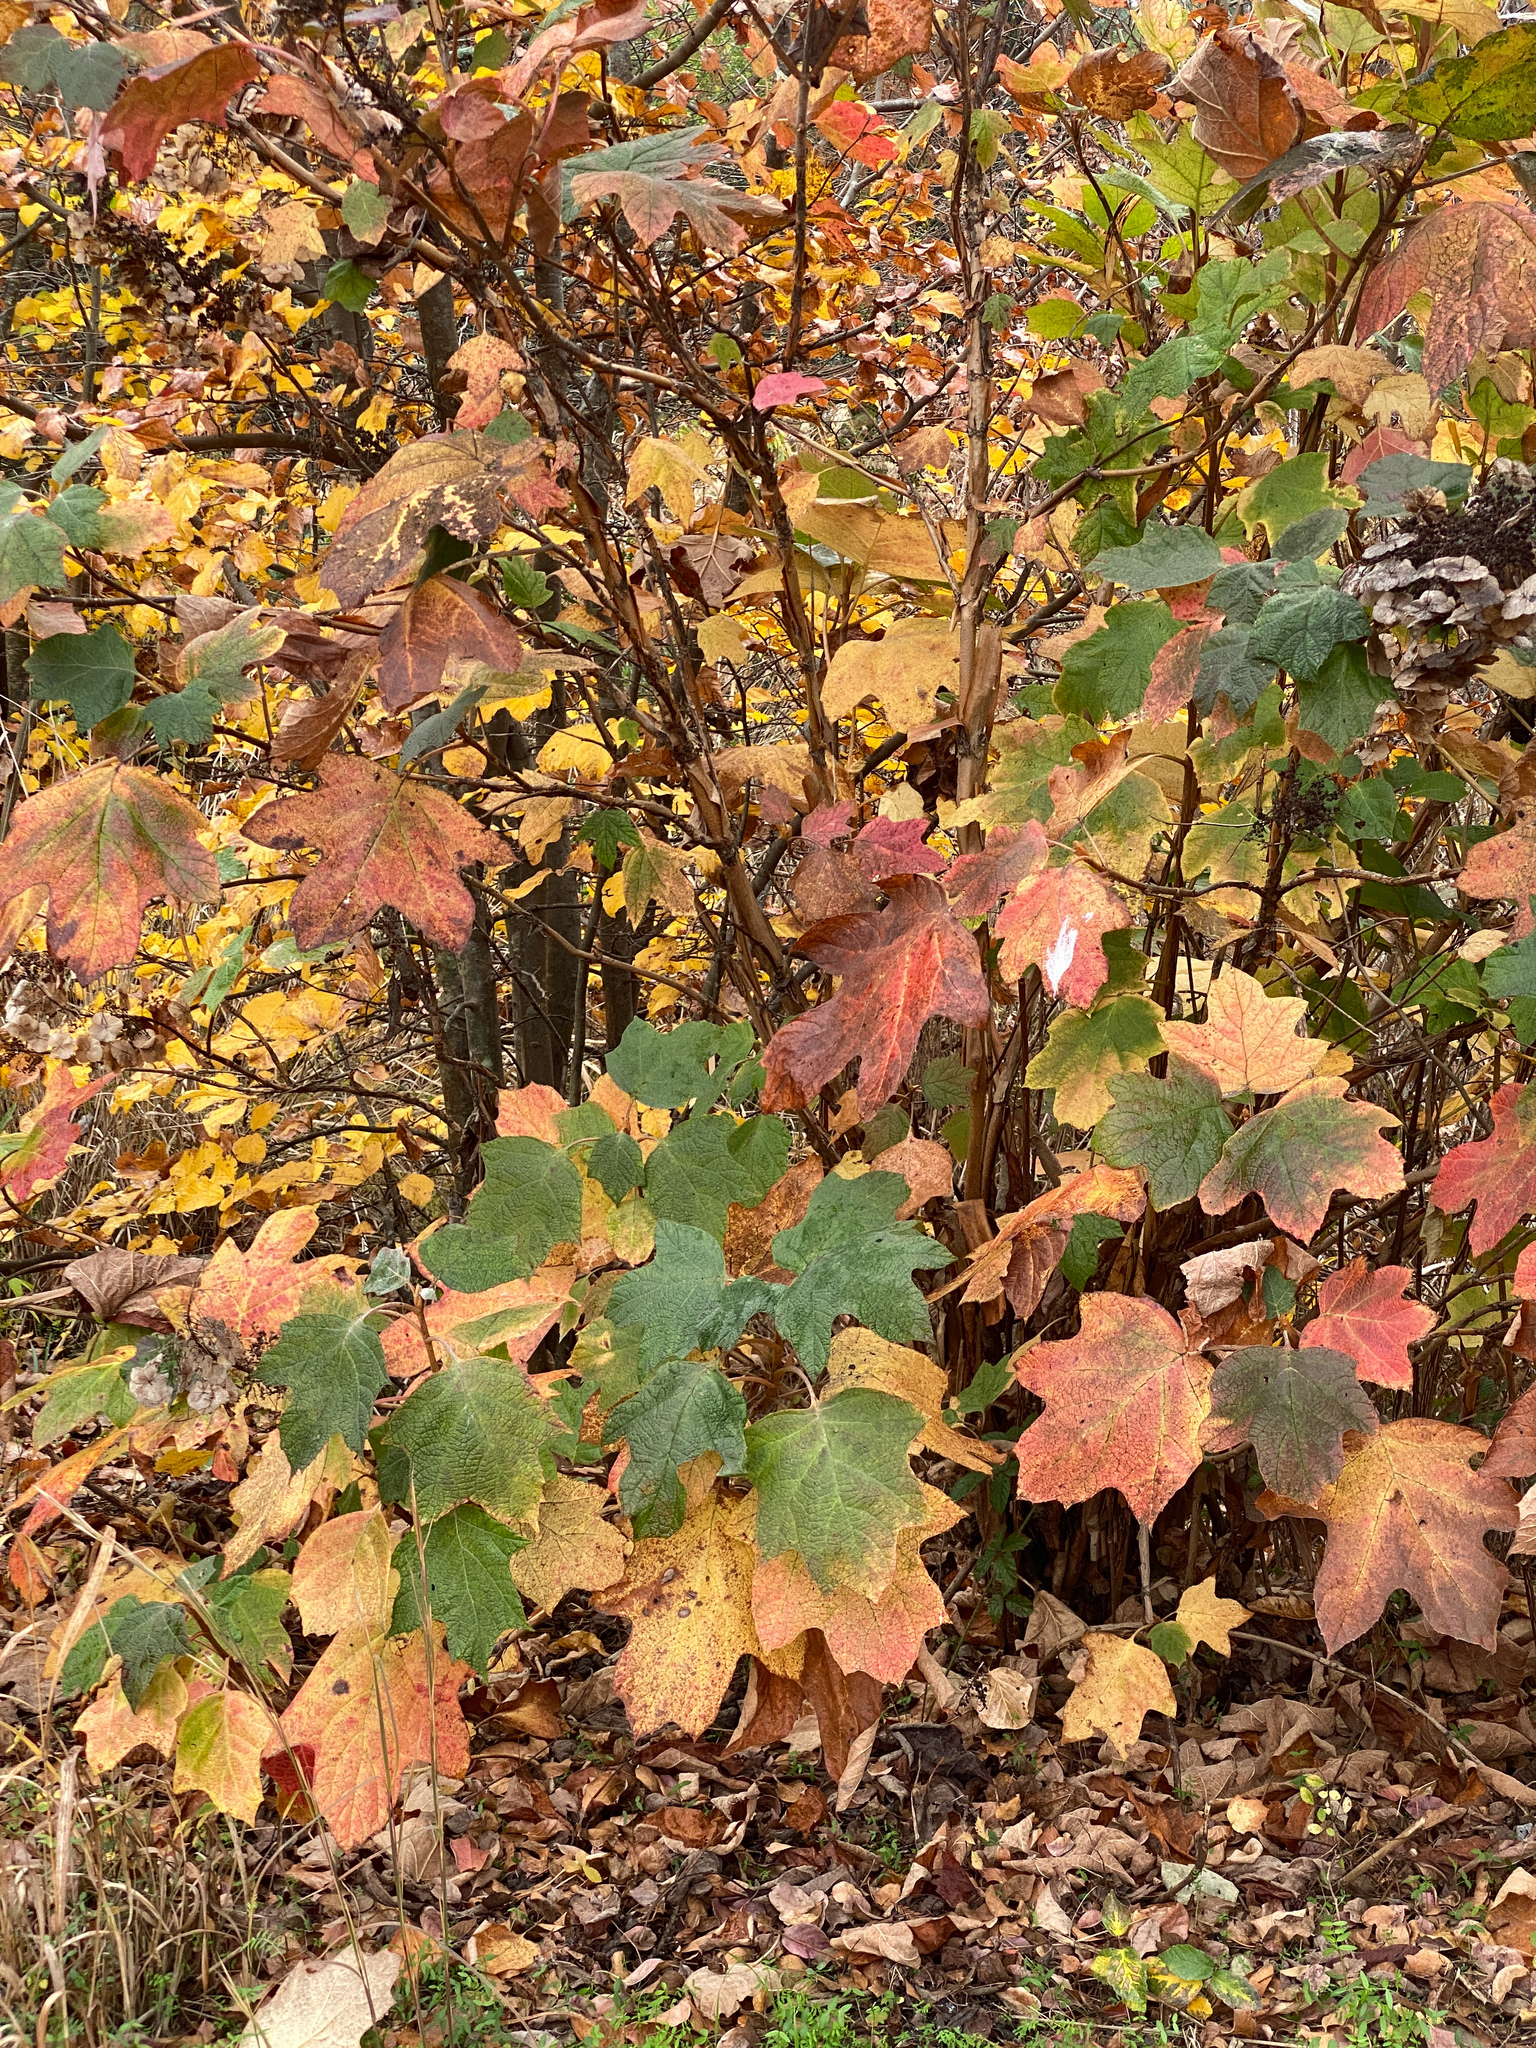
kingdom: Plantae
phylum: Tracheophyta
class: Magnoliopsida
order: Cornales
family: Hydrangeaceae
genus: Hydrangea
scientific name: Hydrangea quercifolia
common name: Oak-leaf hydrangea
